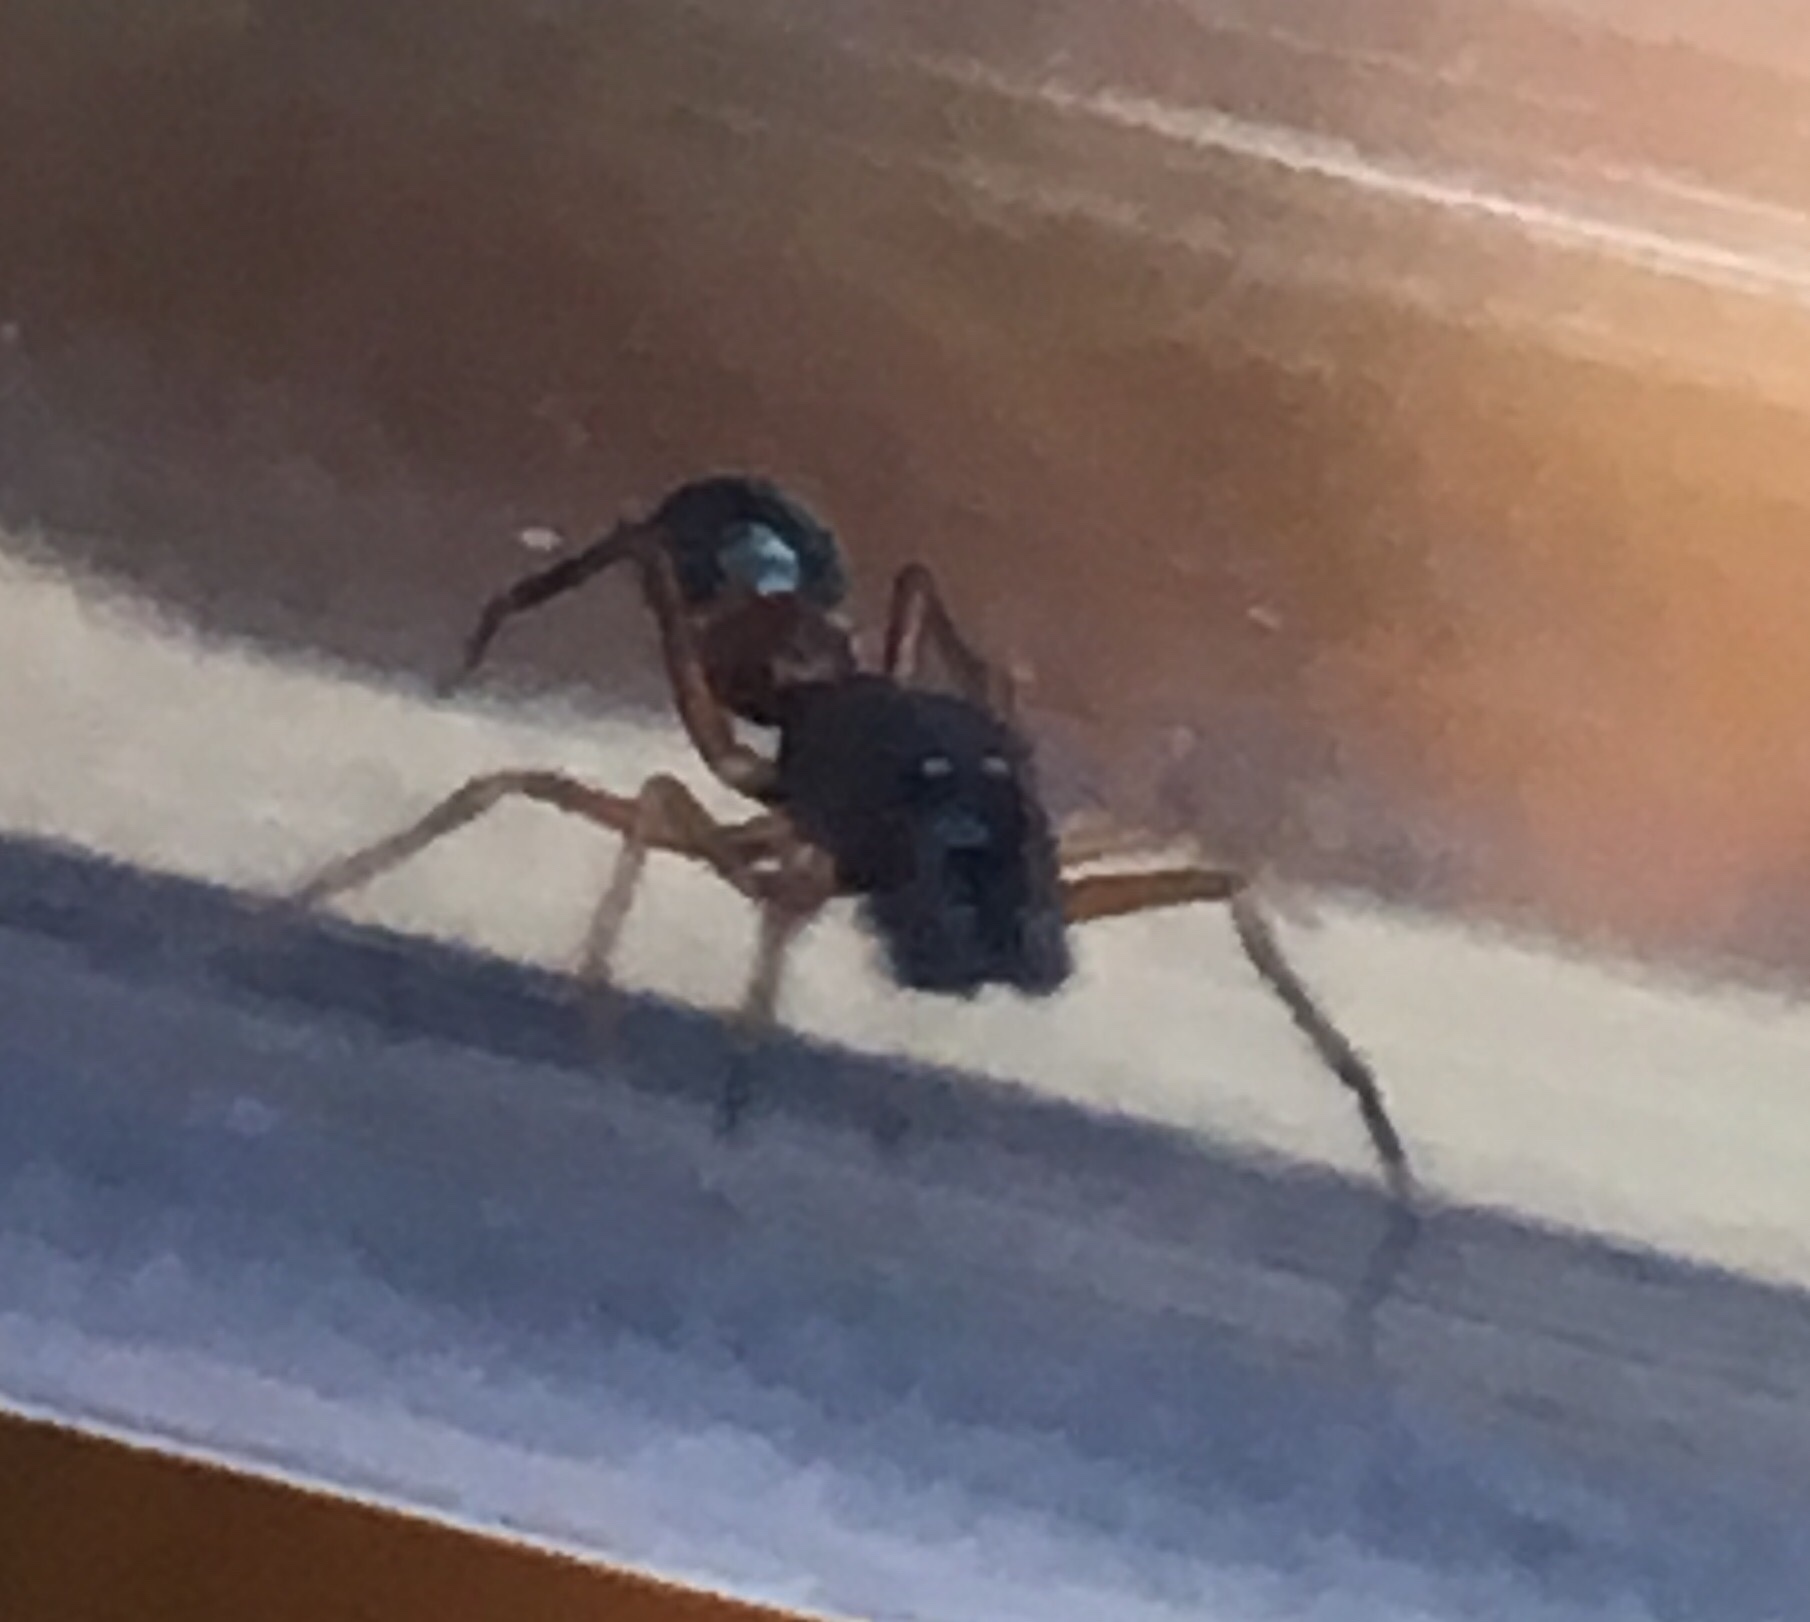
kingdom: Animalia
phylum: Arthropoda
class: Arachnida
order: Araneae
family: Salticidae
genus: Synemosyna
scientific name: Synemosyna formica
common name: Slender ant-mimic jumping spider
